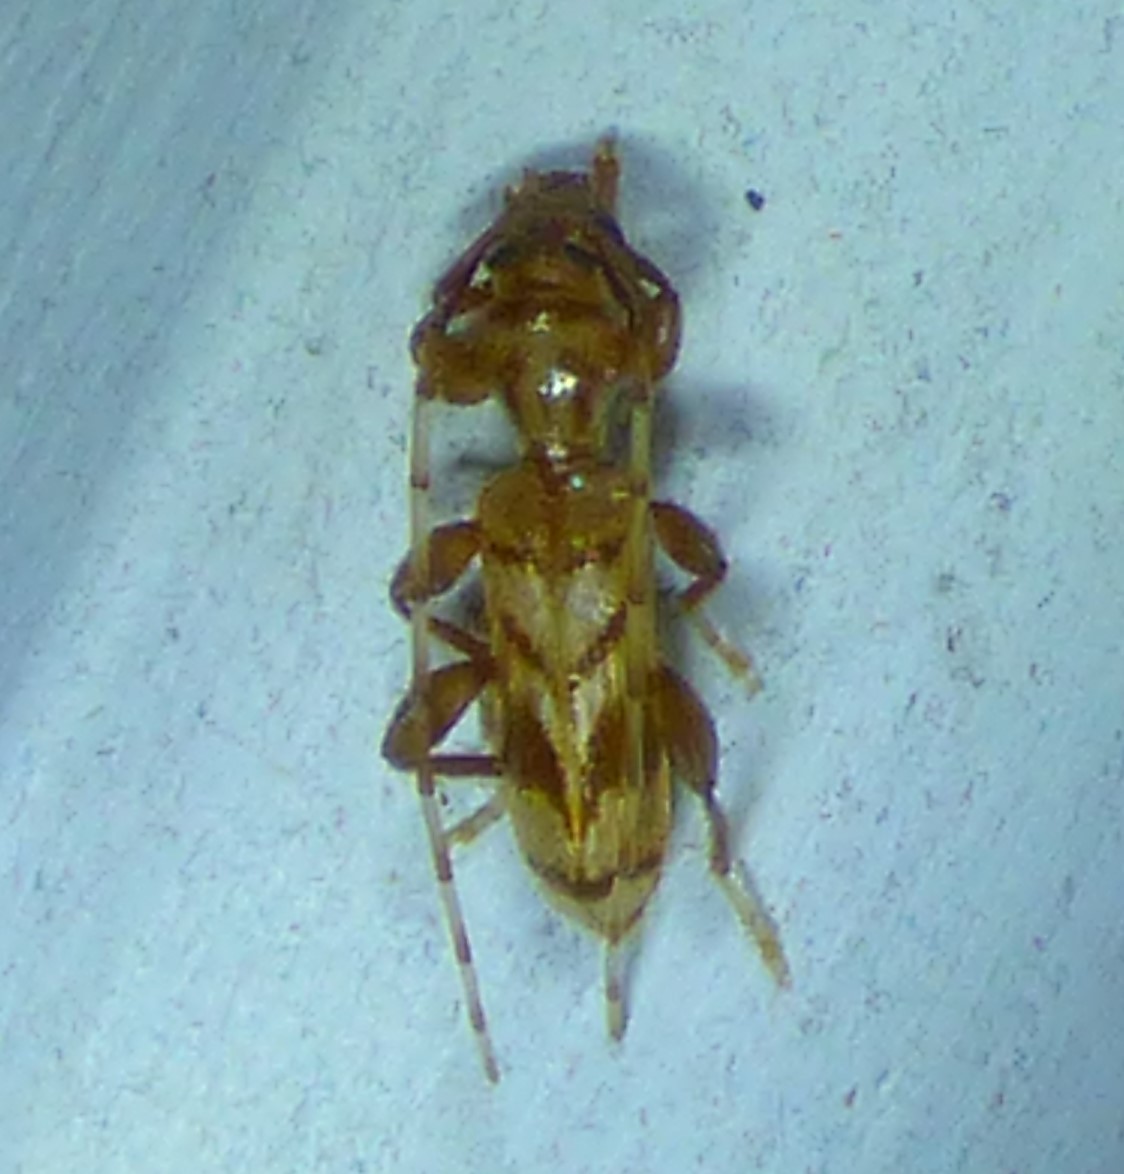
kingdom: Animalia
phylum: Arthropoda
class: Insecta
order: Coleoptera
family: Cerambycidae
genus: Obrium
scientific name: Obrium maculatum
